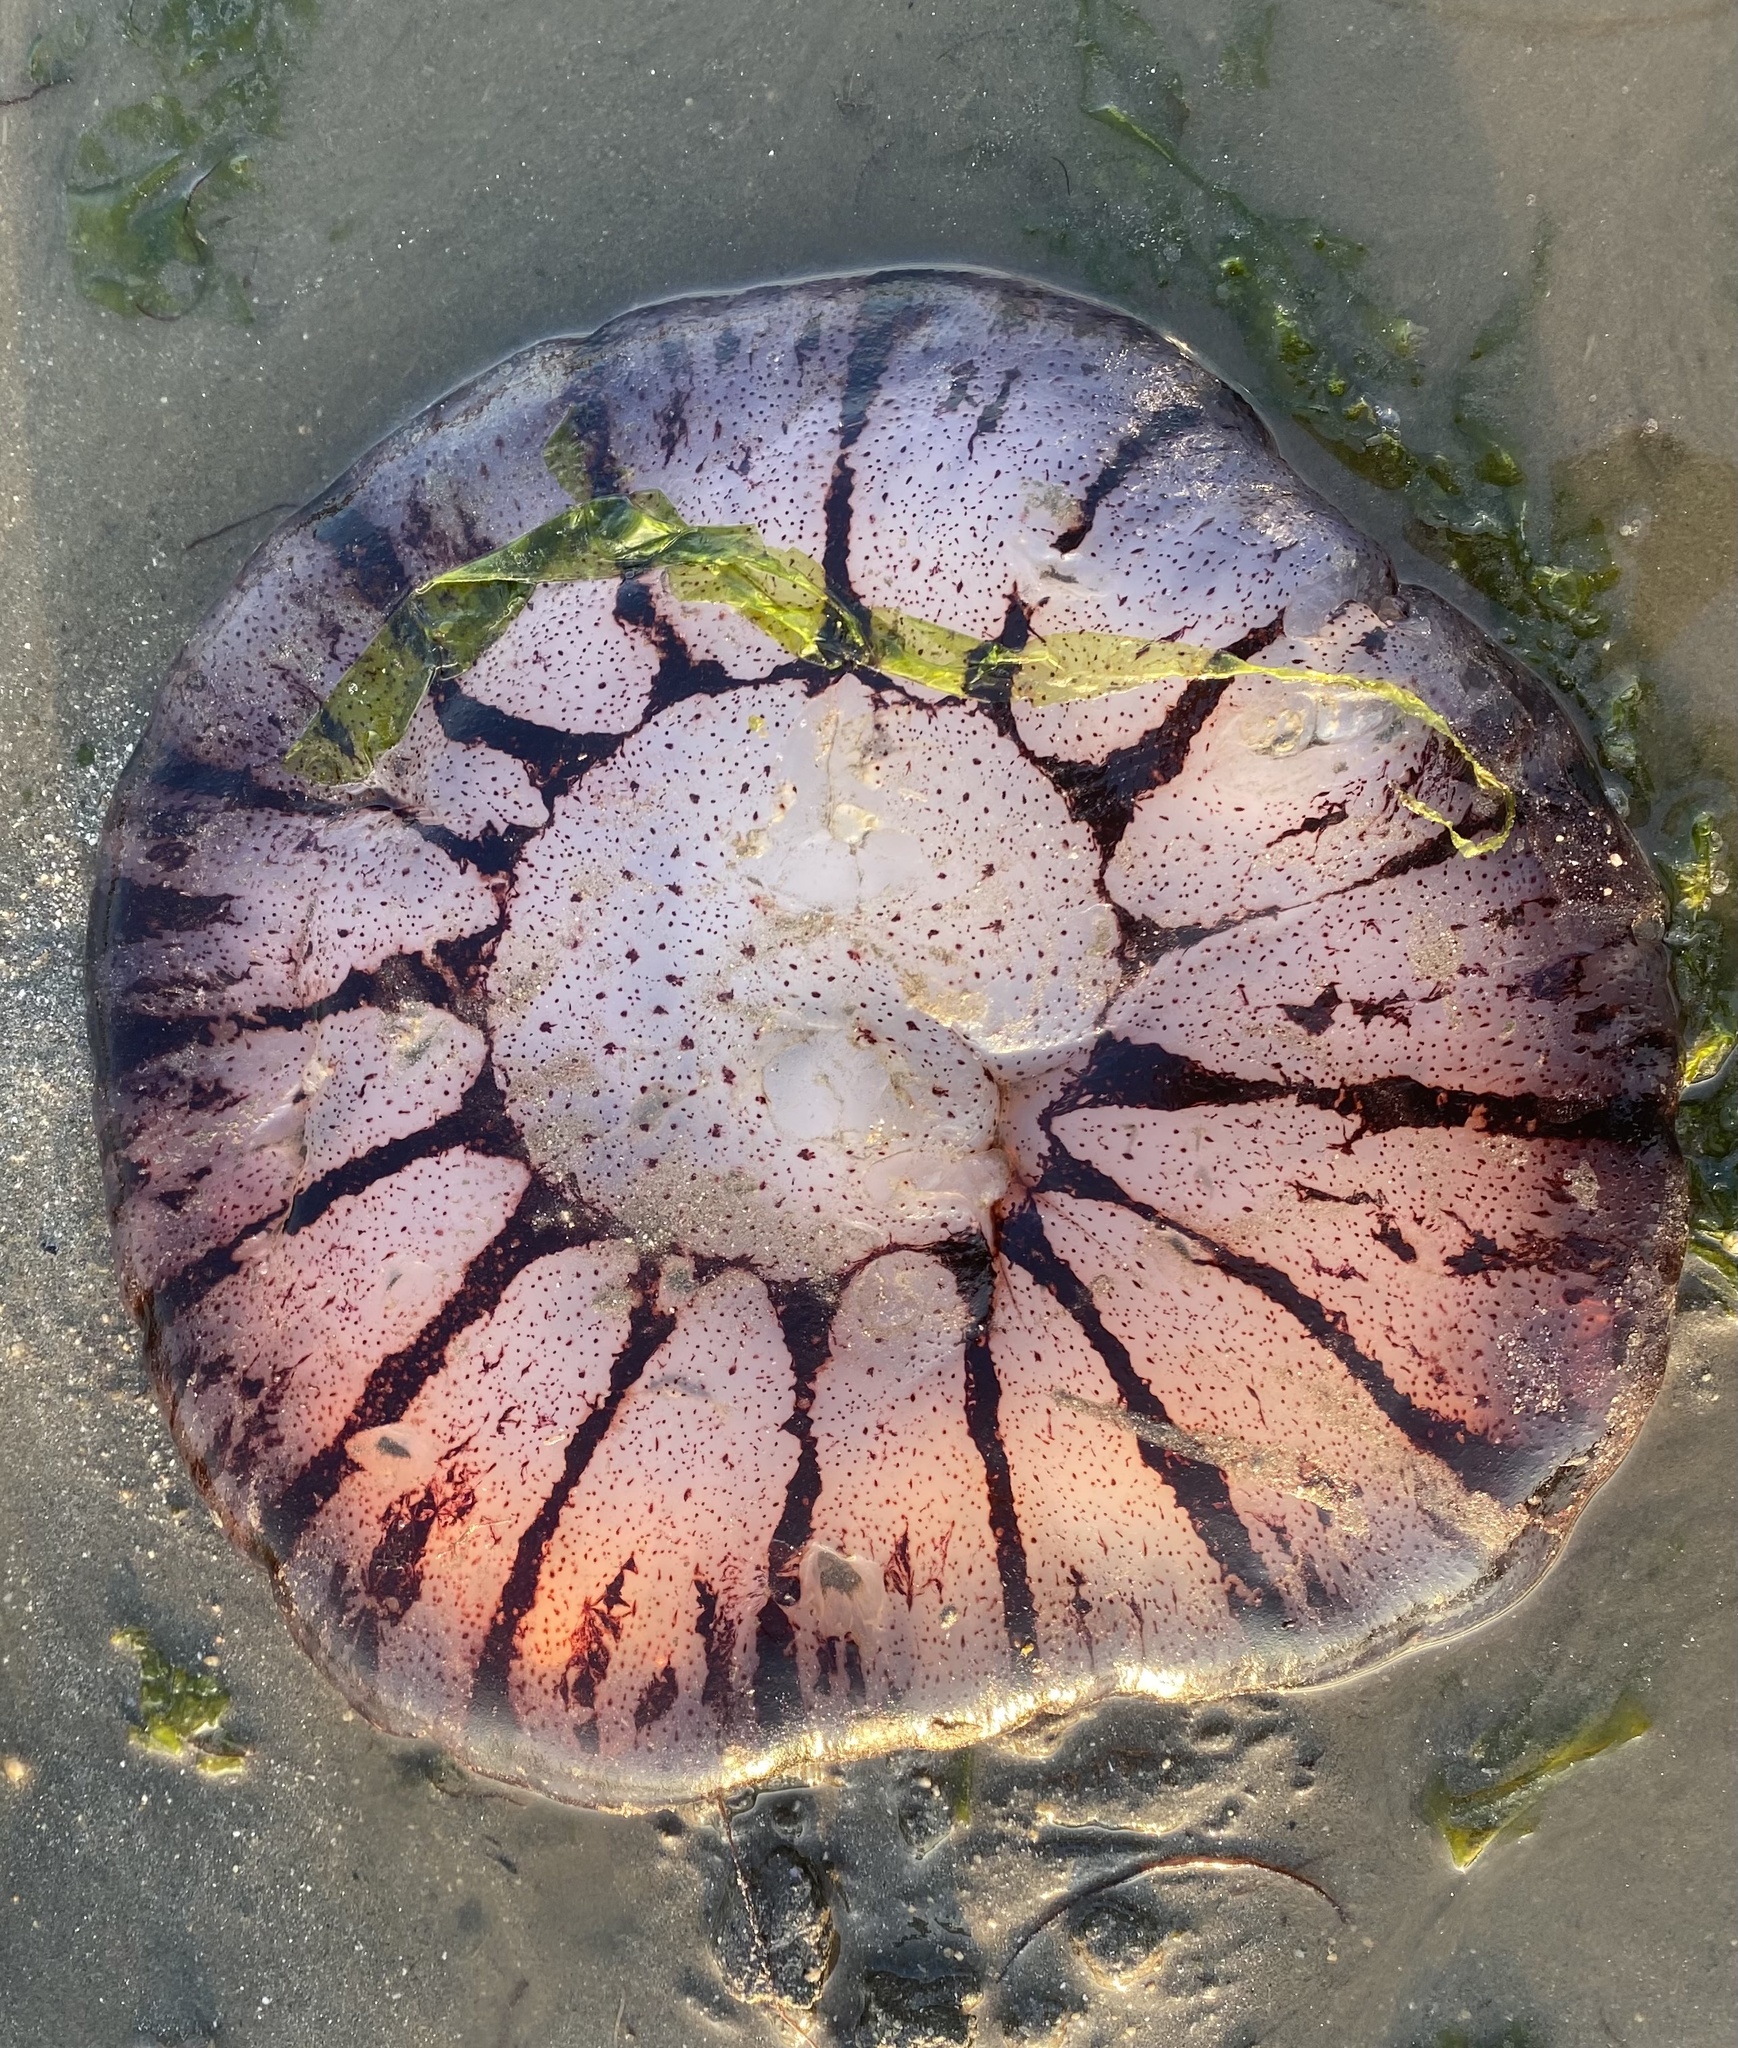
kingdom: Animalia
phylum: Cnidaria
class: Scyphozoa
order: Semaeostomeae
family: Pelagiidae
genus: Chrysaora
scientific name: Chrysaora colorata
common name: Purple-striped jellyfish
